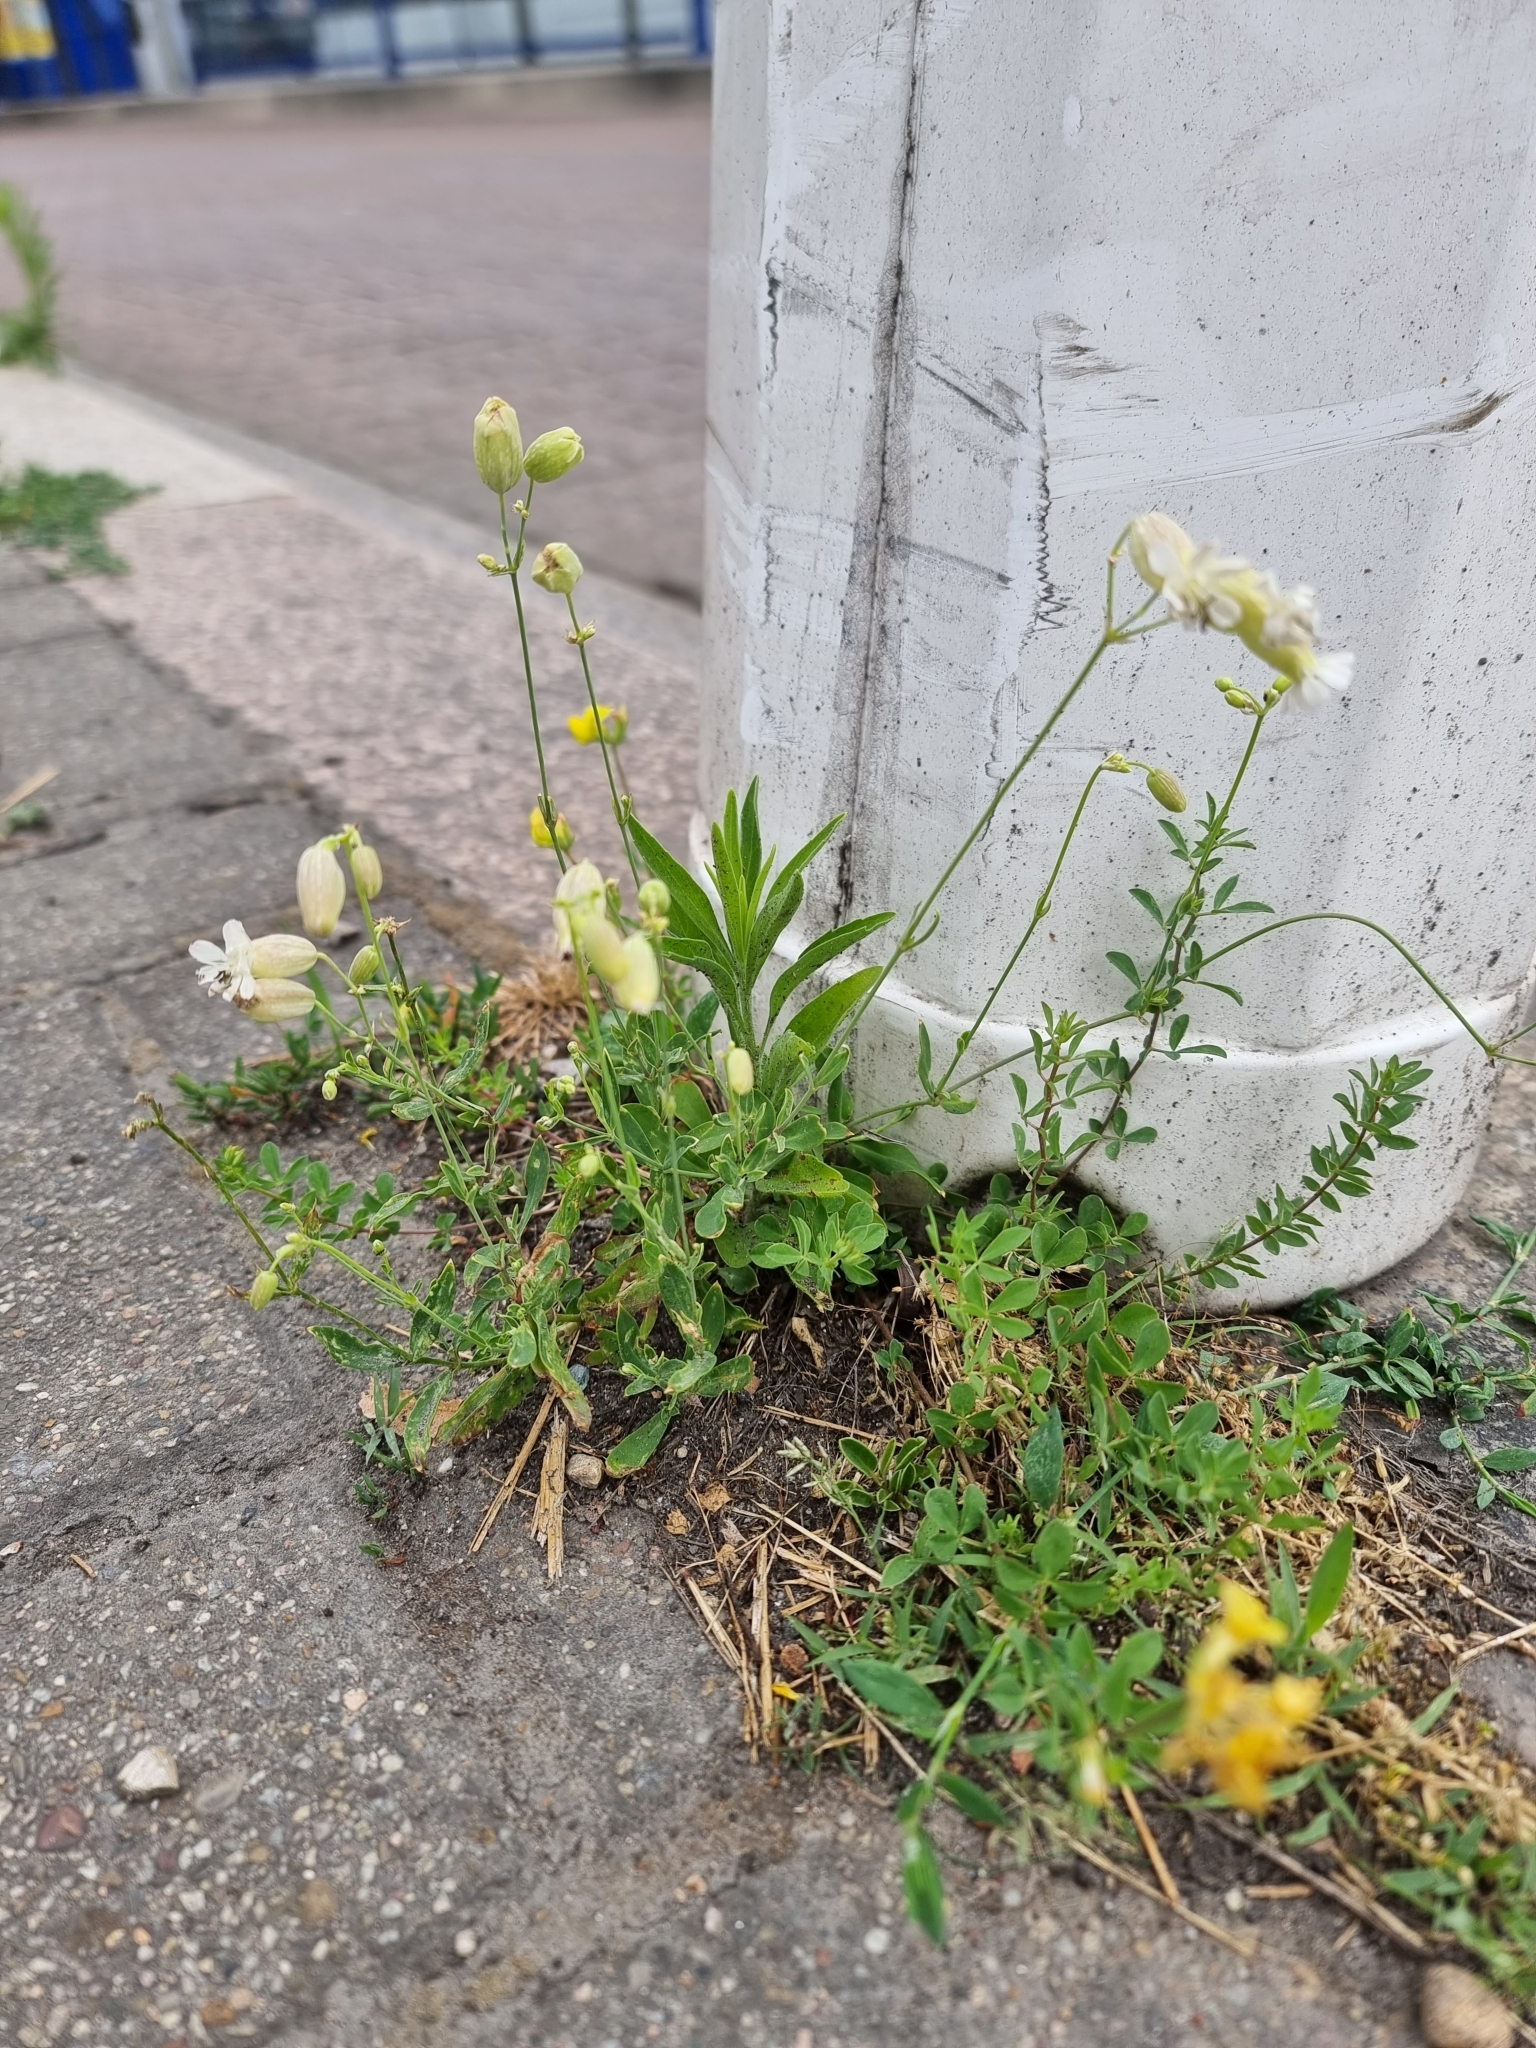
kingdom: Plantae
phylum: Tracheophyta
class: Magnoliopsida
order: Caryophyllales
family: Caryophyllaceae
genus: Silene
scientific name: Silene vulgaris
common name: Bladder campion
